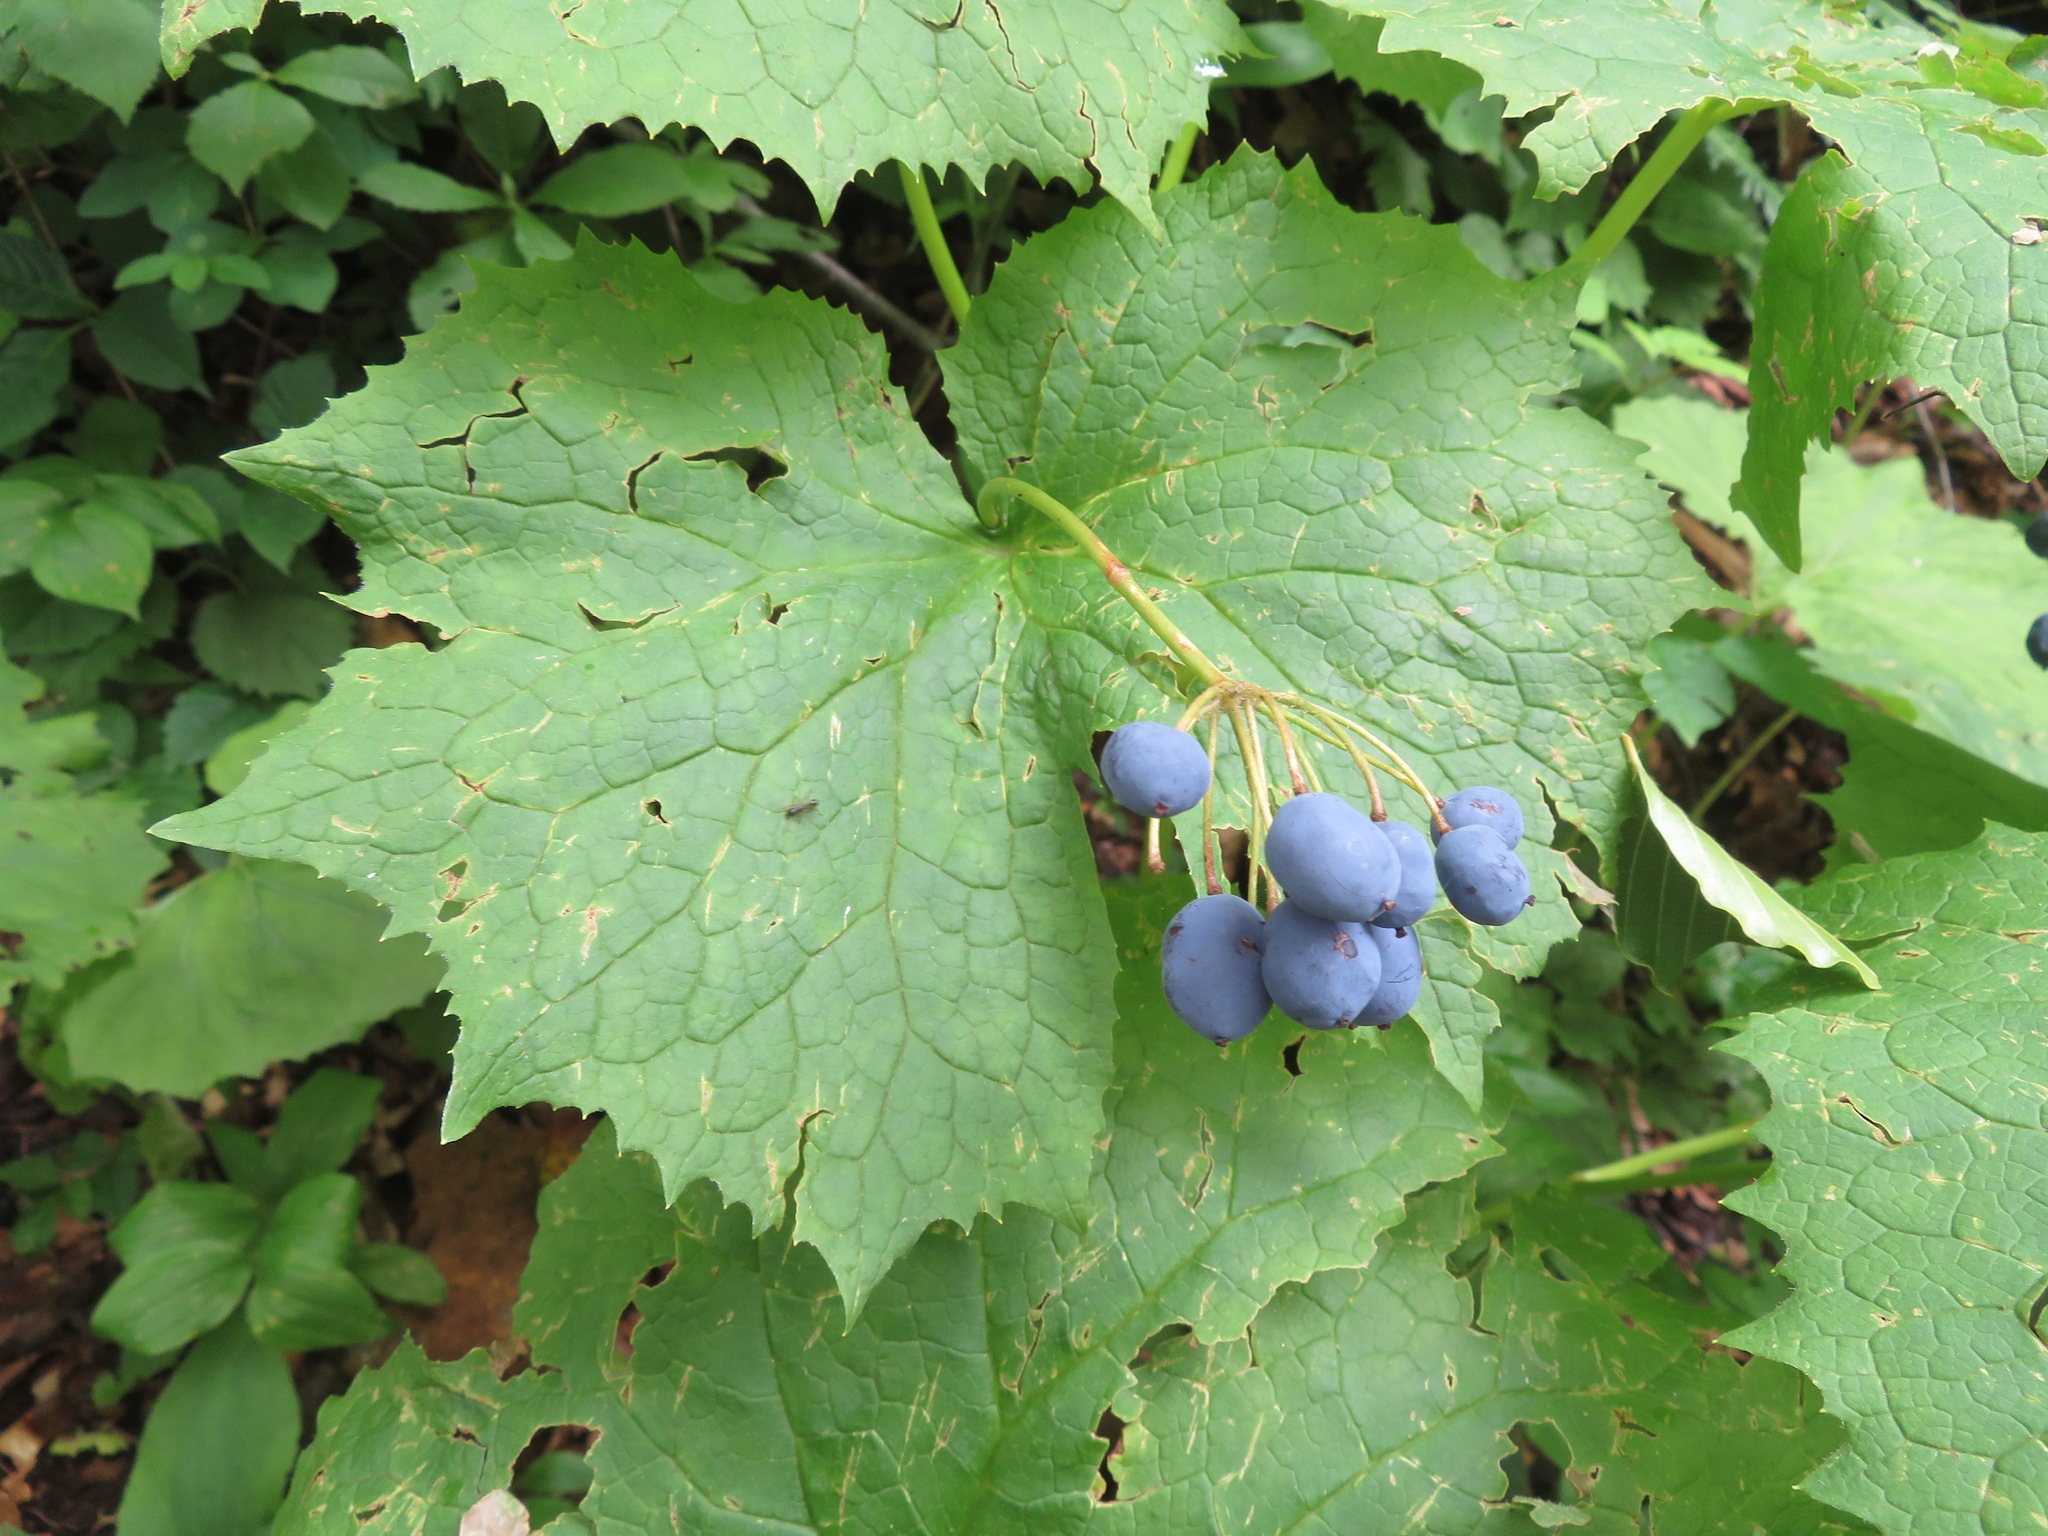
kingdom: Plantae
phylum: Tracheophyta
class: Magnoliopsida
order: Ranunculales
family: Berberidaceae
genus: Diphylleia
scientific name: Diphylleia grayi
